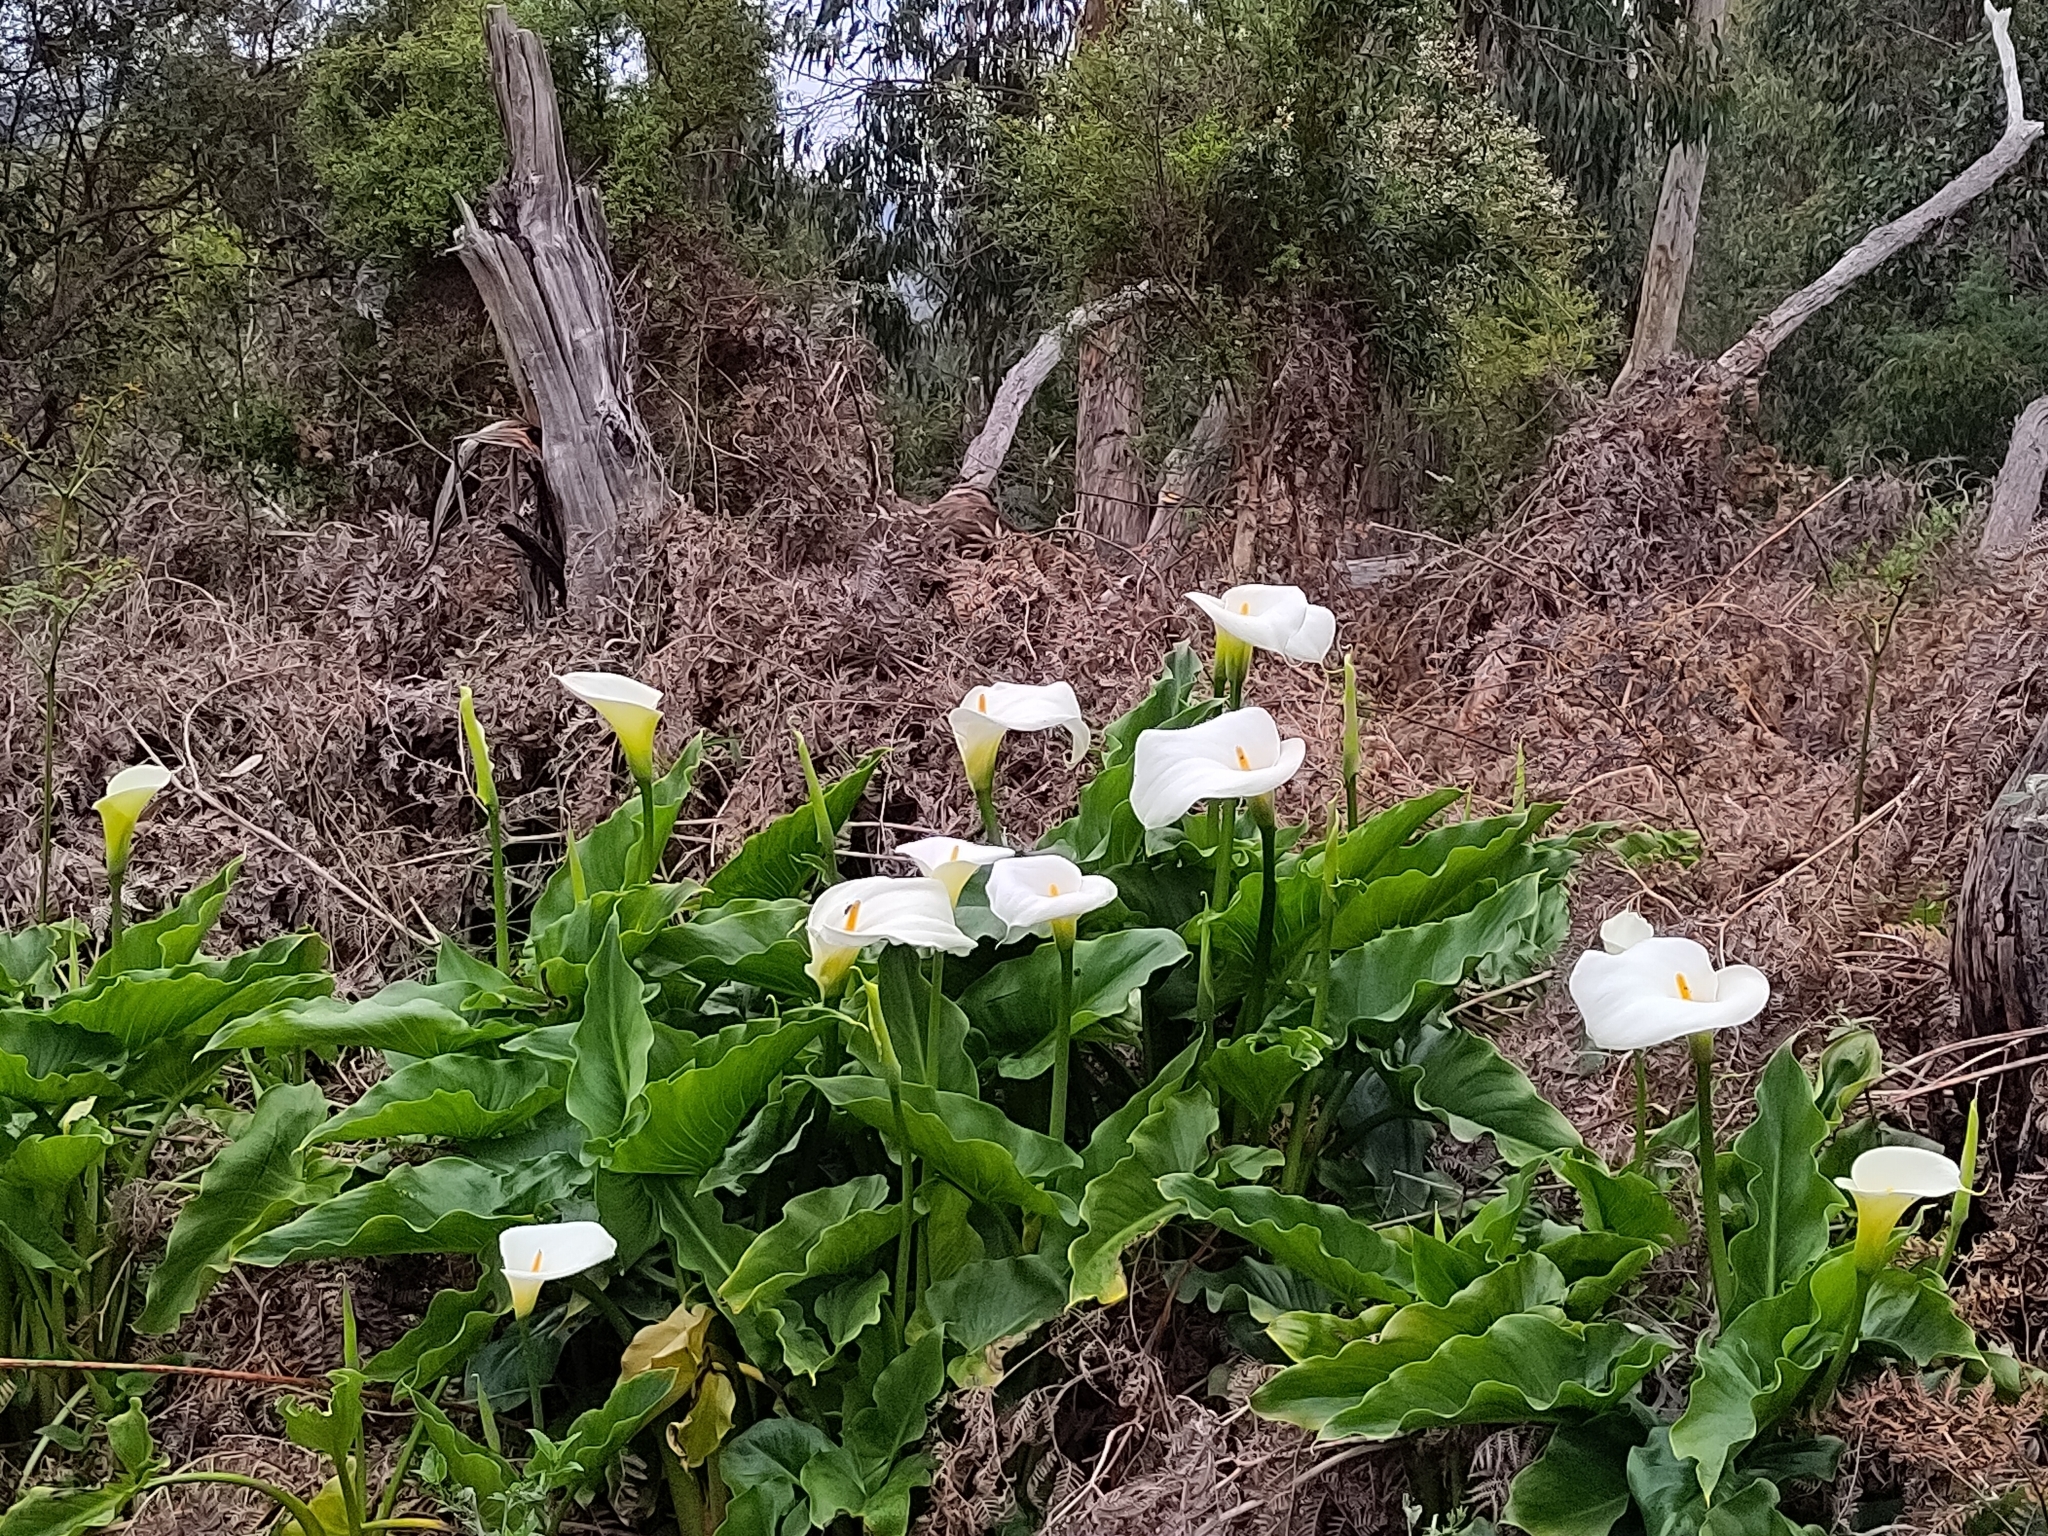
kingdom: Plantae
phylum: Tracheophyta
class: Liliopsida
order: Alismatales
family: Araceae
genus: Zantedeschia
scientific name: Zantedeschia aethiopica
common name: Altar-lily
